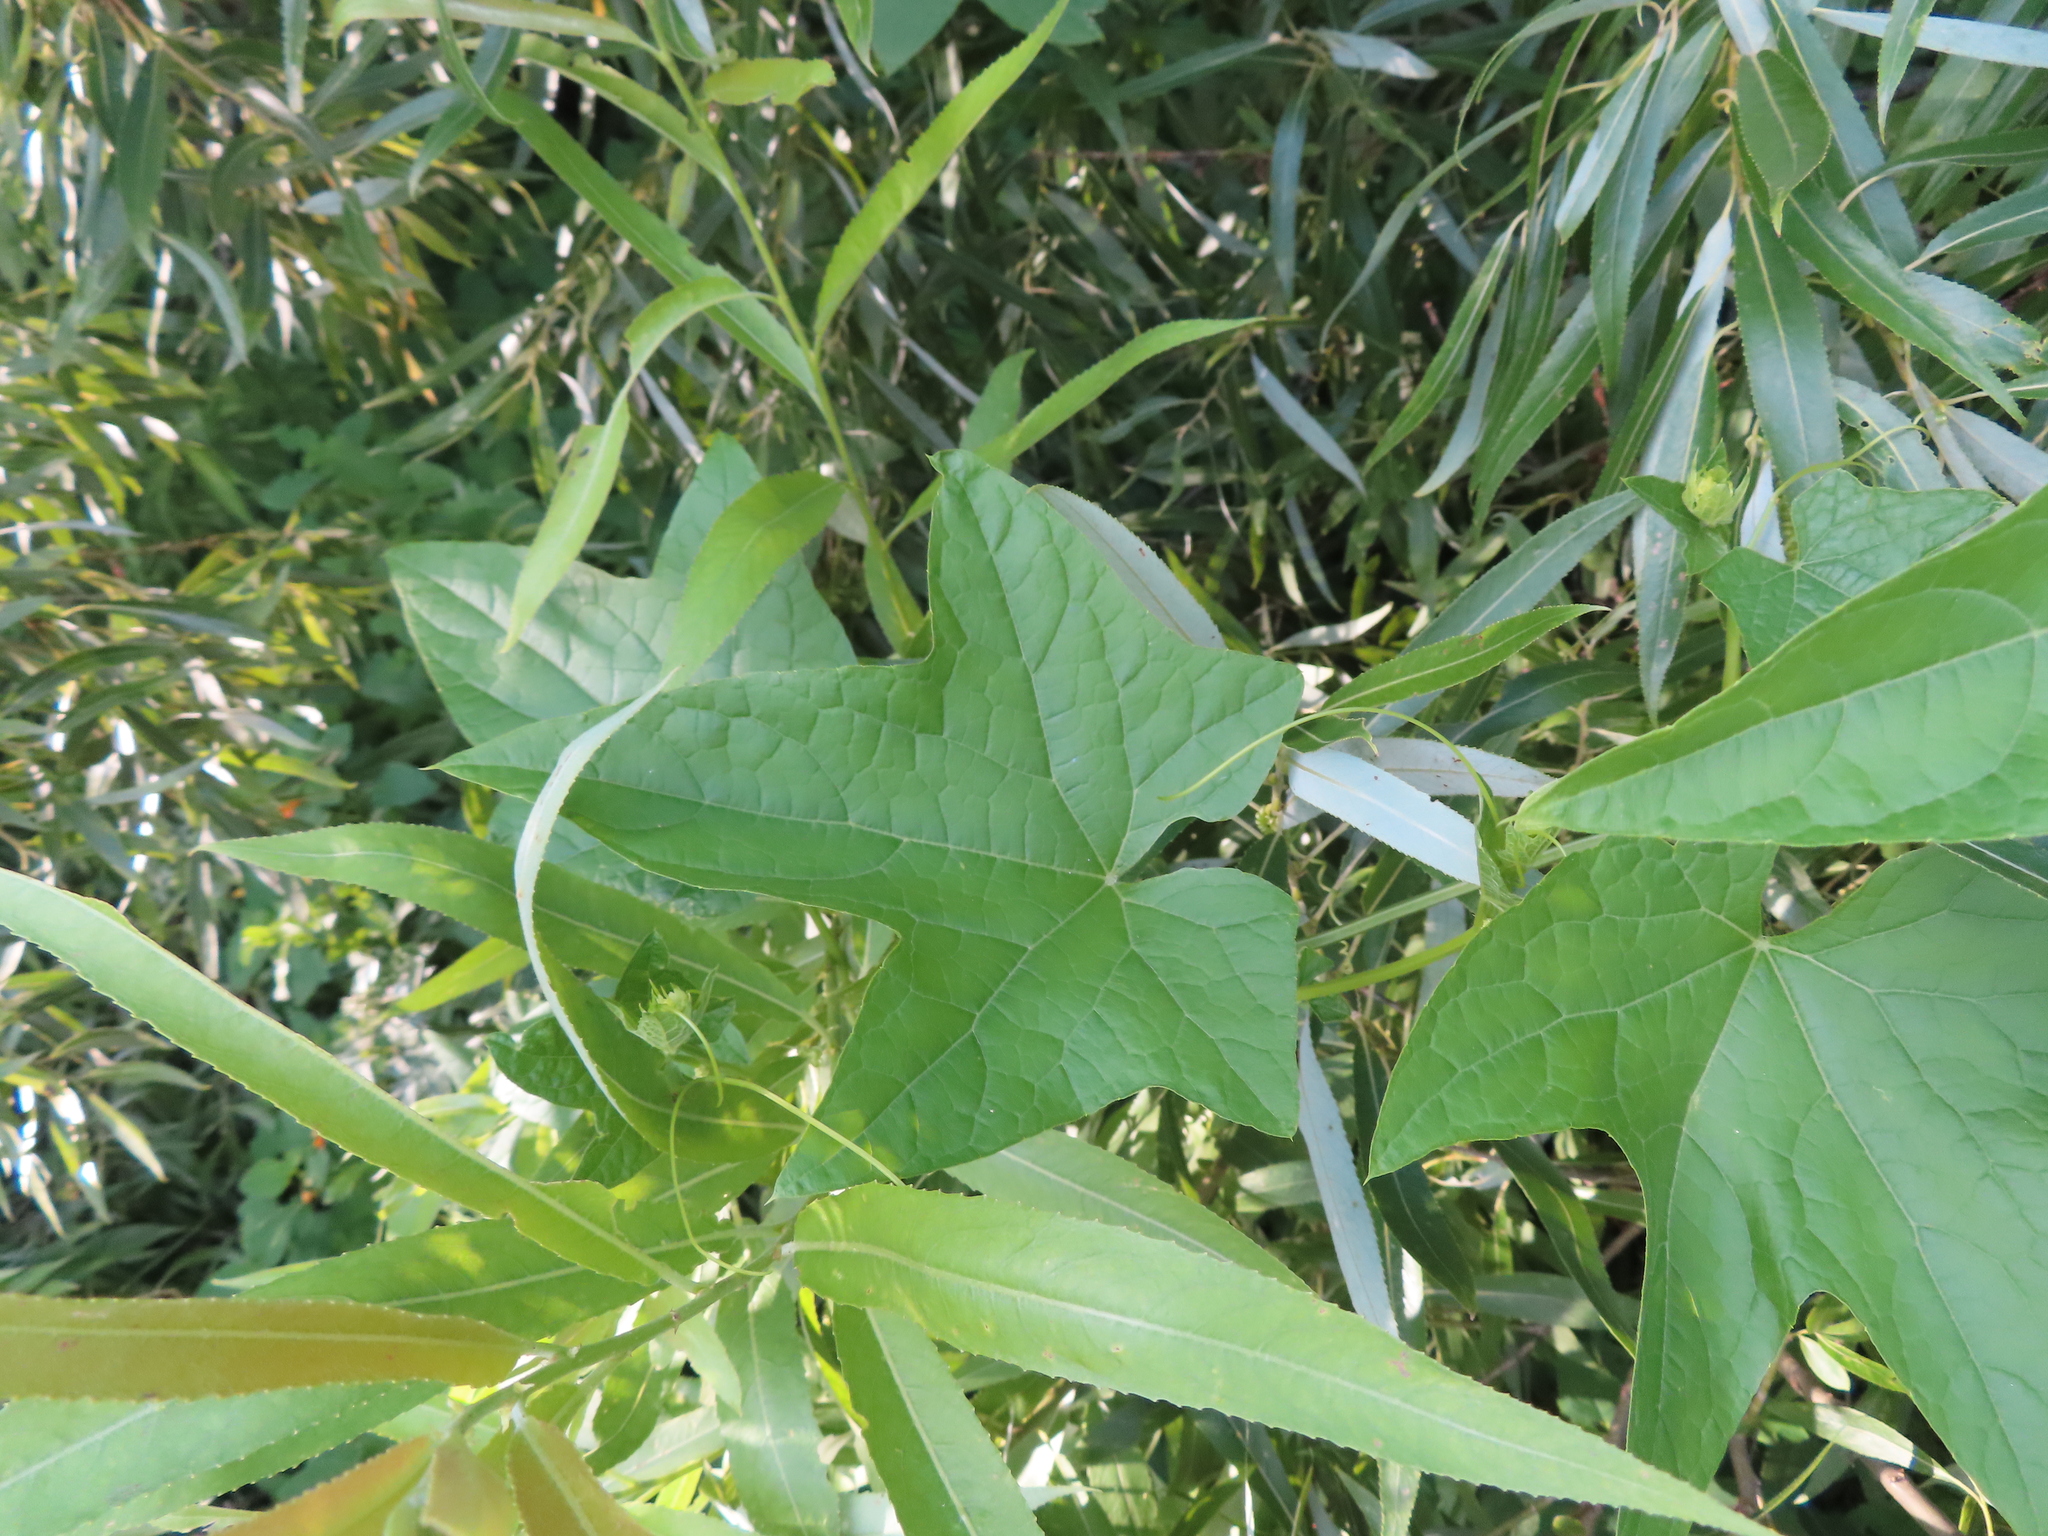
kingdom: Plantae
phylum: Tracheophyta
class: Magnoliopsida
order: Cucurbitales
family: Cucurbitaceae
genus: Echinocystis
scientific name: Echinocystis lobata
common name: Wild cucumber
